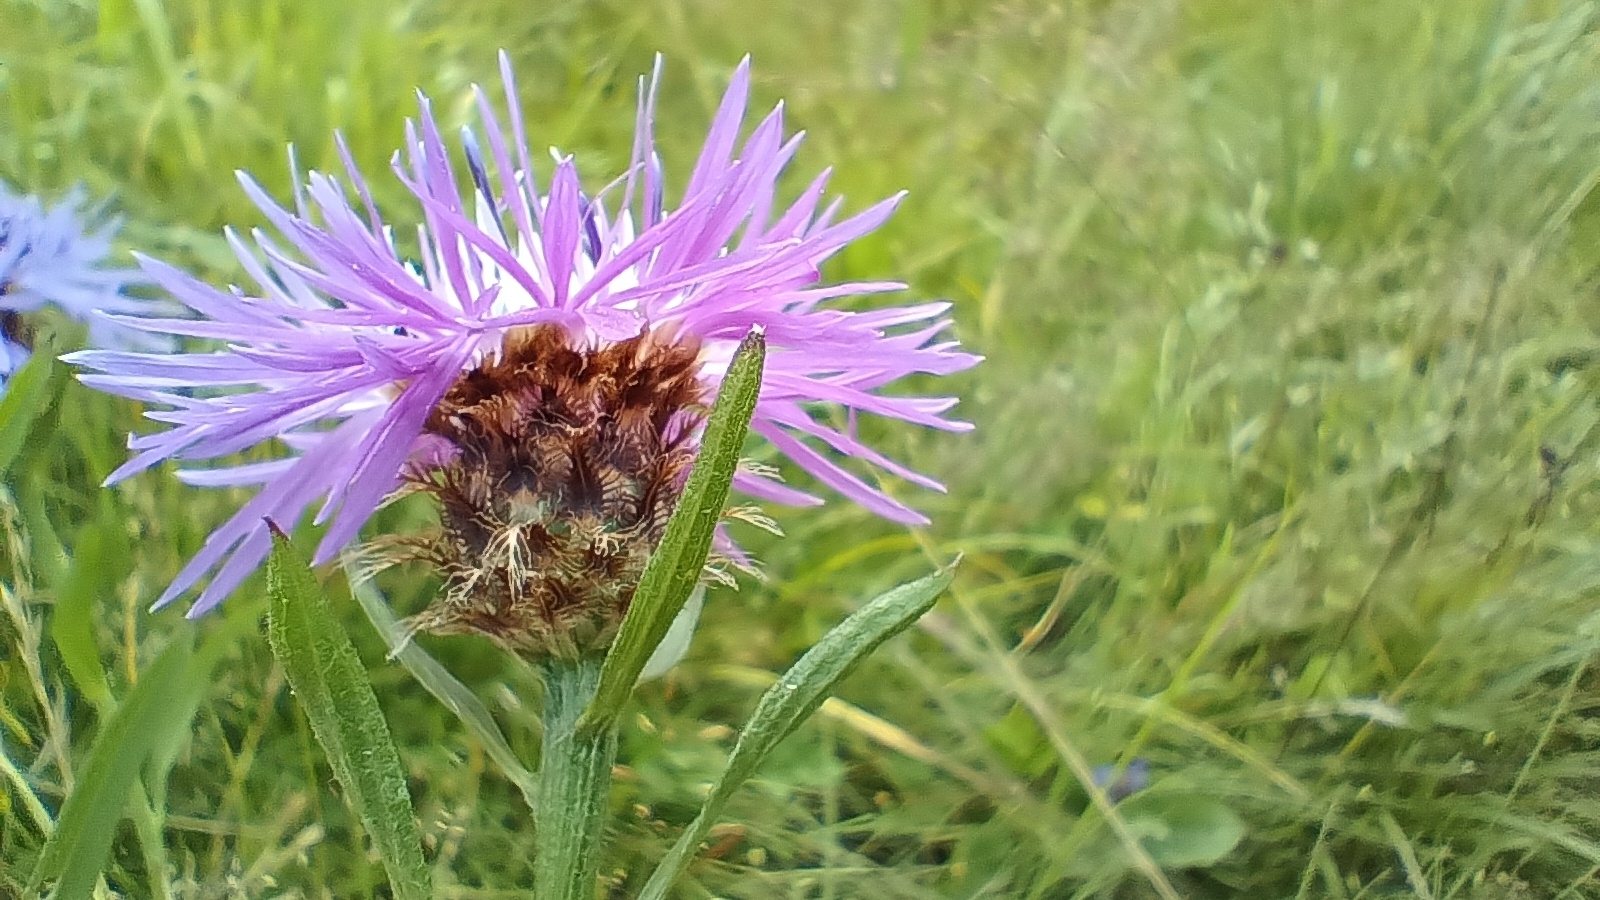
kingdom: Plantae
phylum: Tracheophyta
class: Magnoliopsida
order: Asterales
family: Asteraceae
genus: Centaurea
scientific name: Centaurea oxylepis
